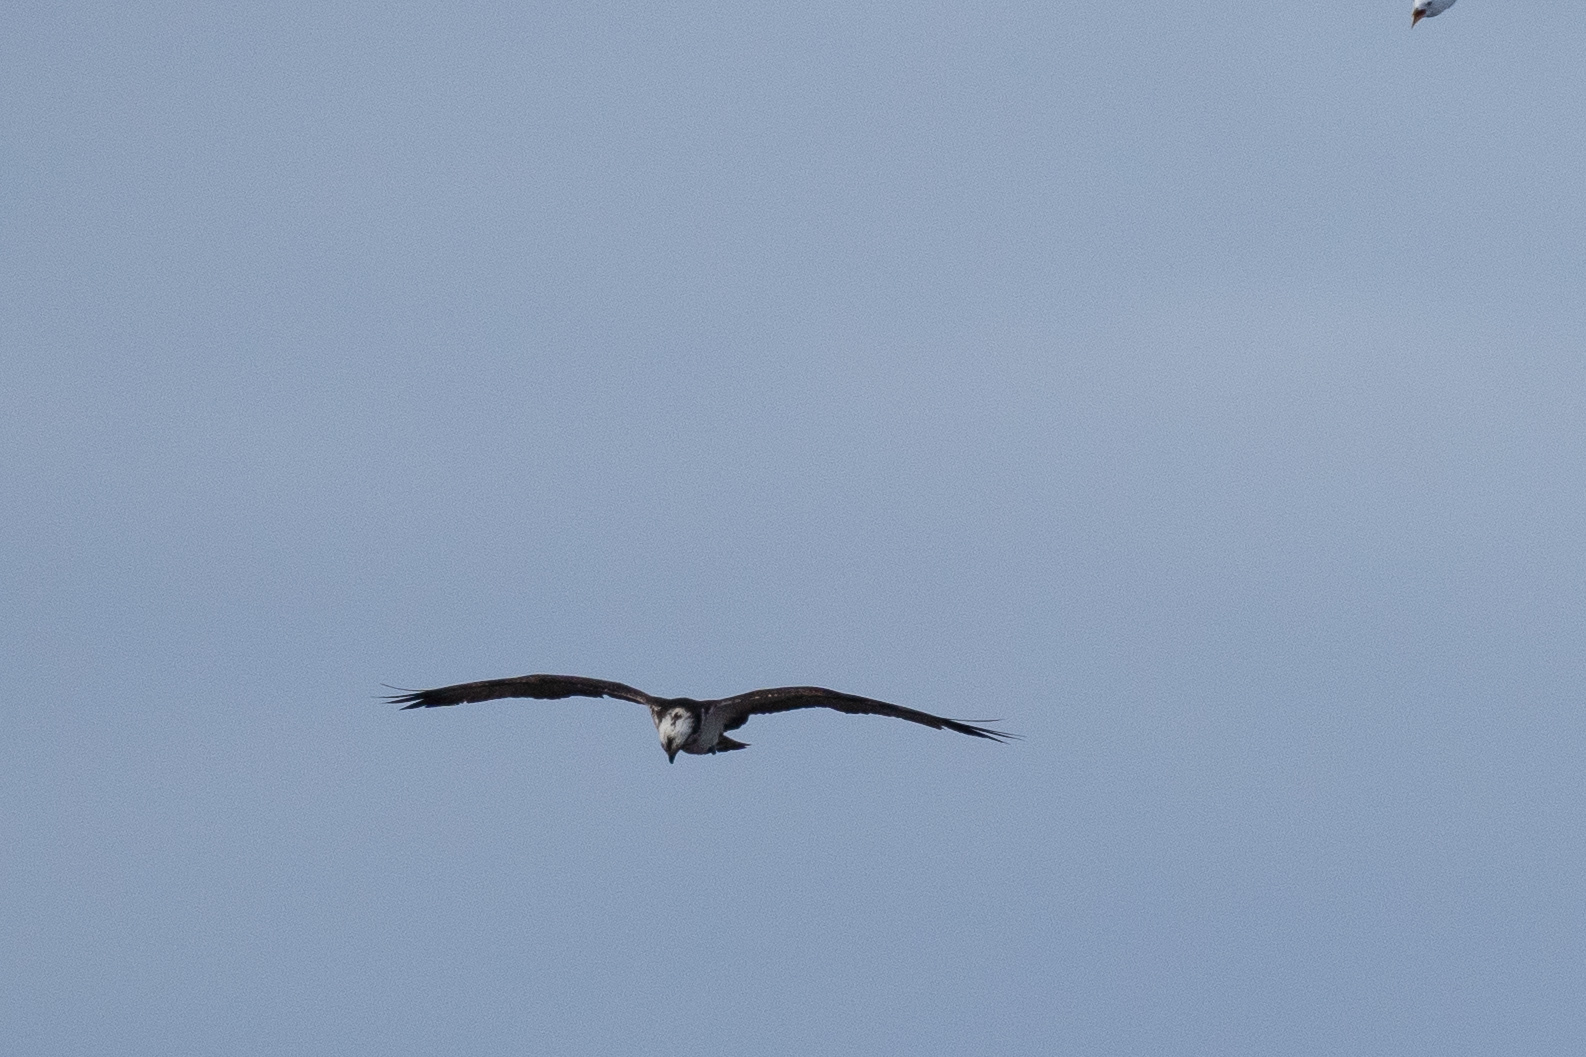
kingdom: Animalia
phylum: Chordata
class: Aves
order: Accipitriformes
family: Pandionidae
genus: Pandion
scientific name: Pandion haliaetus
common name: Osprey
